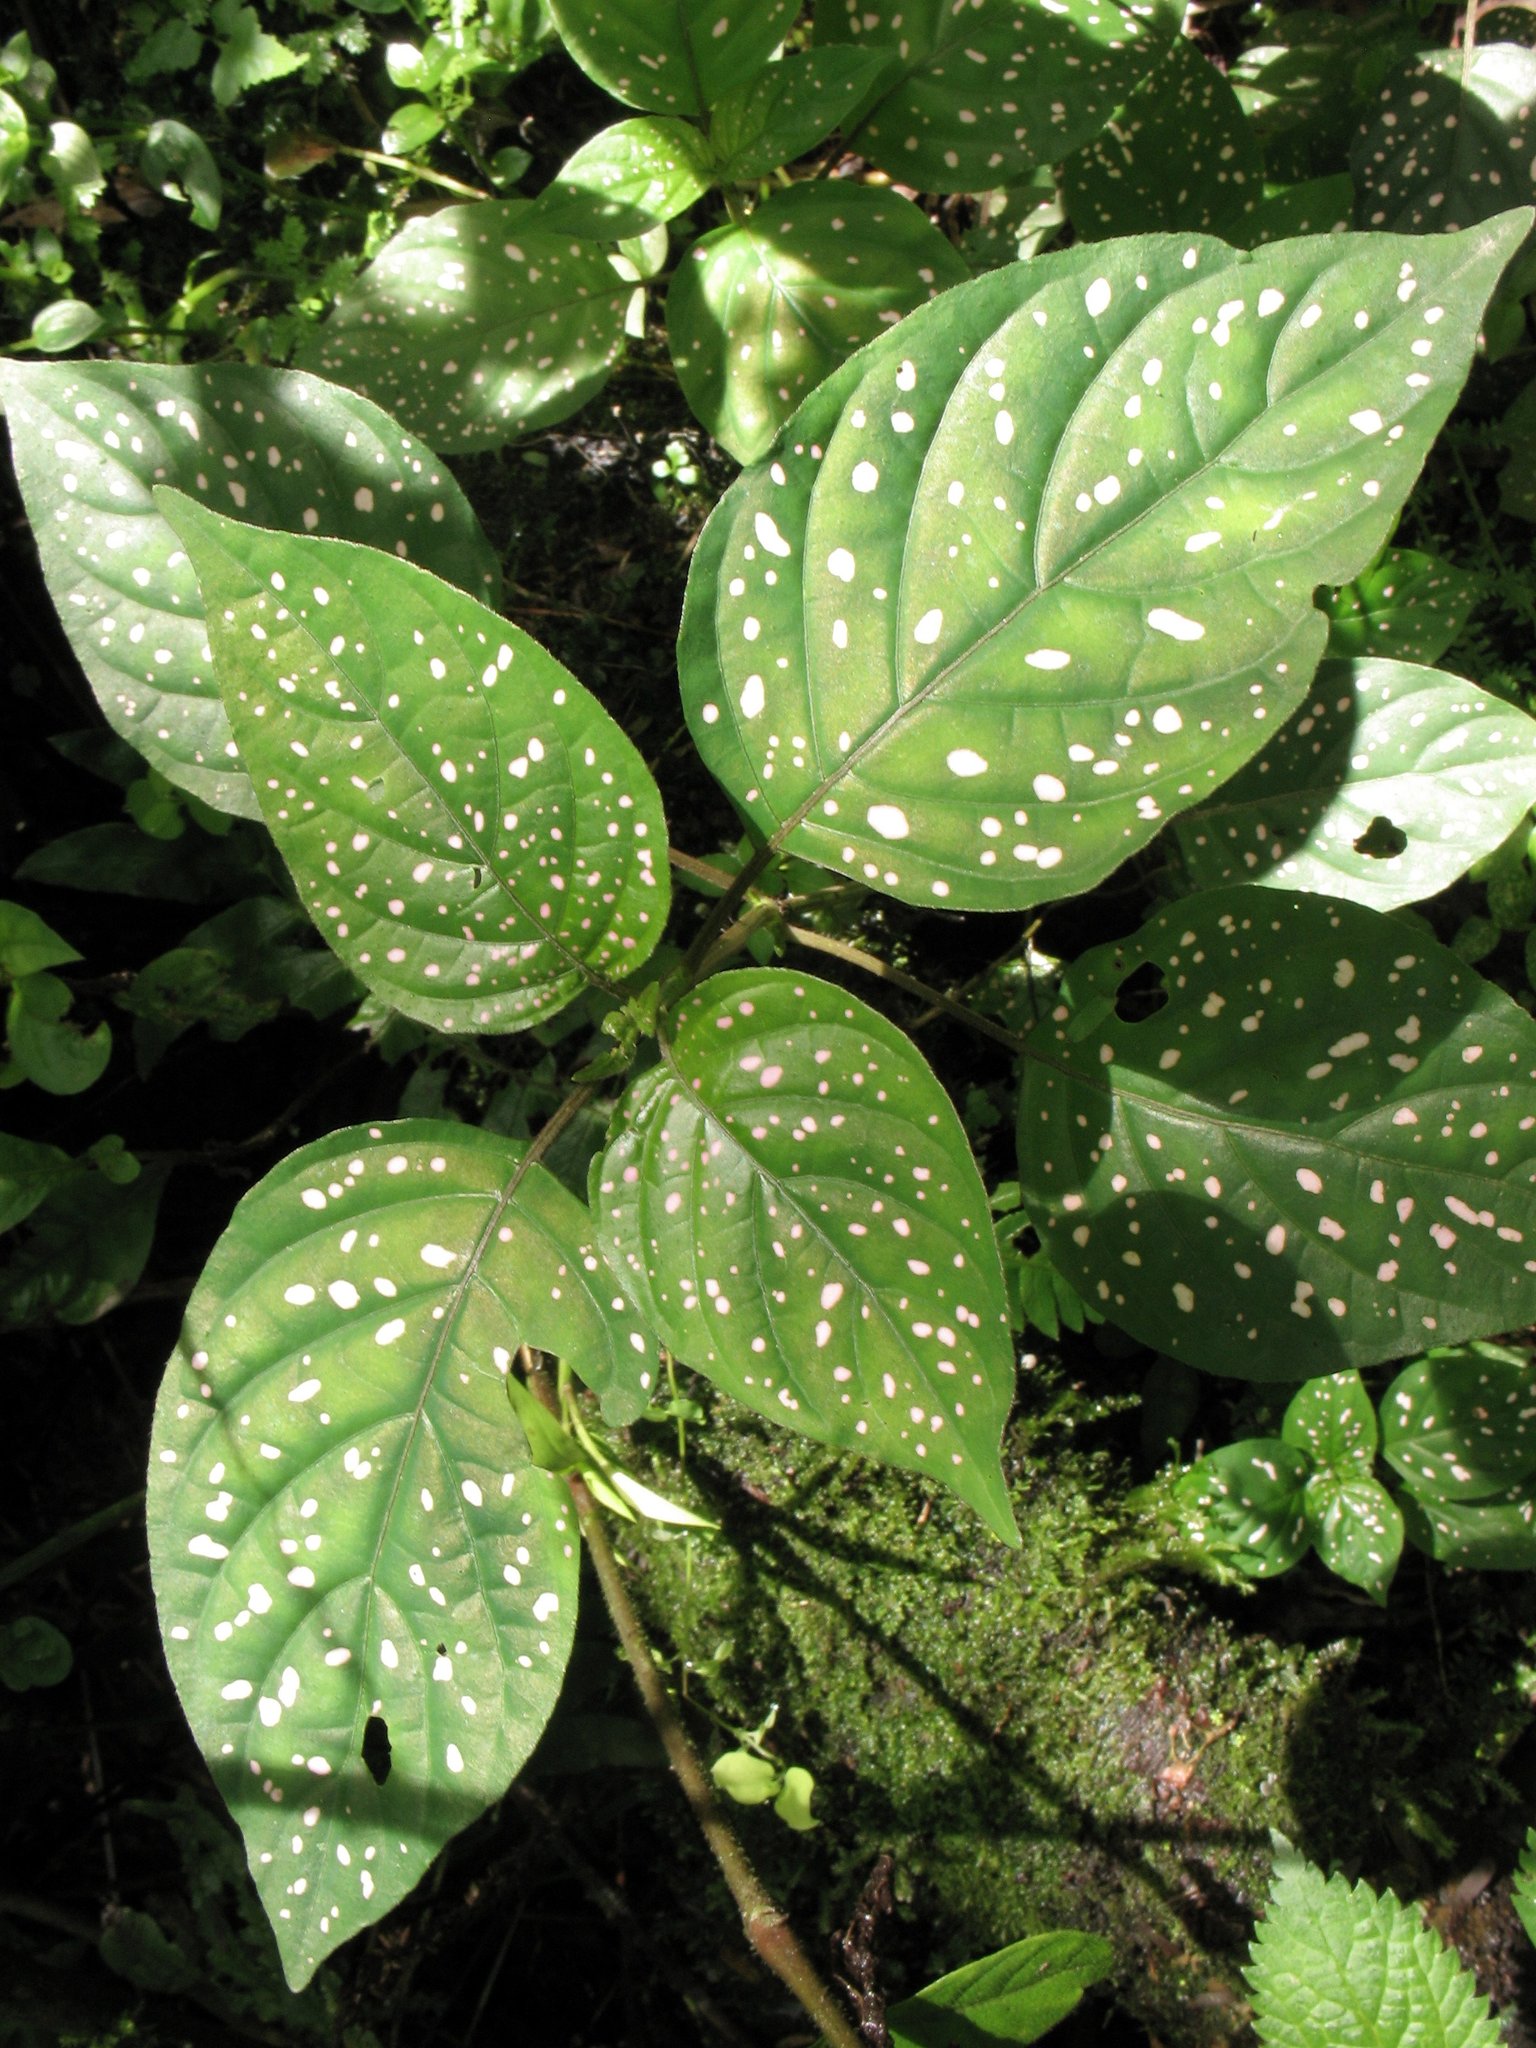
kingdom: Plantae
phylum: Tracheophyta
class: Magnoliopsida
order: Lamiales
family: Acanthaceae
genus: Hypoestes
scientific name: Hypoestes phyllostachya
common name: Polkadot-plant
